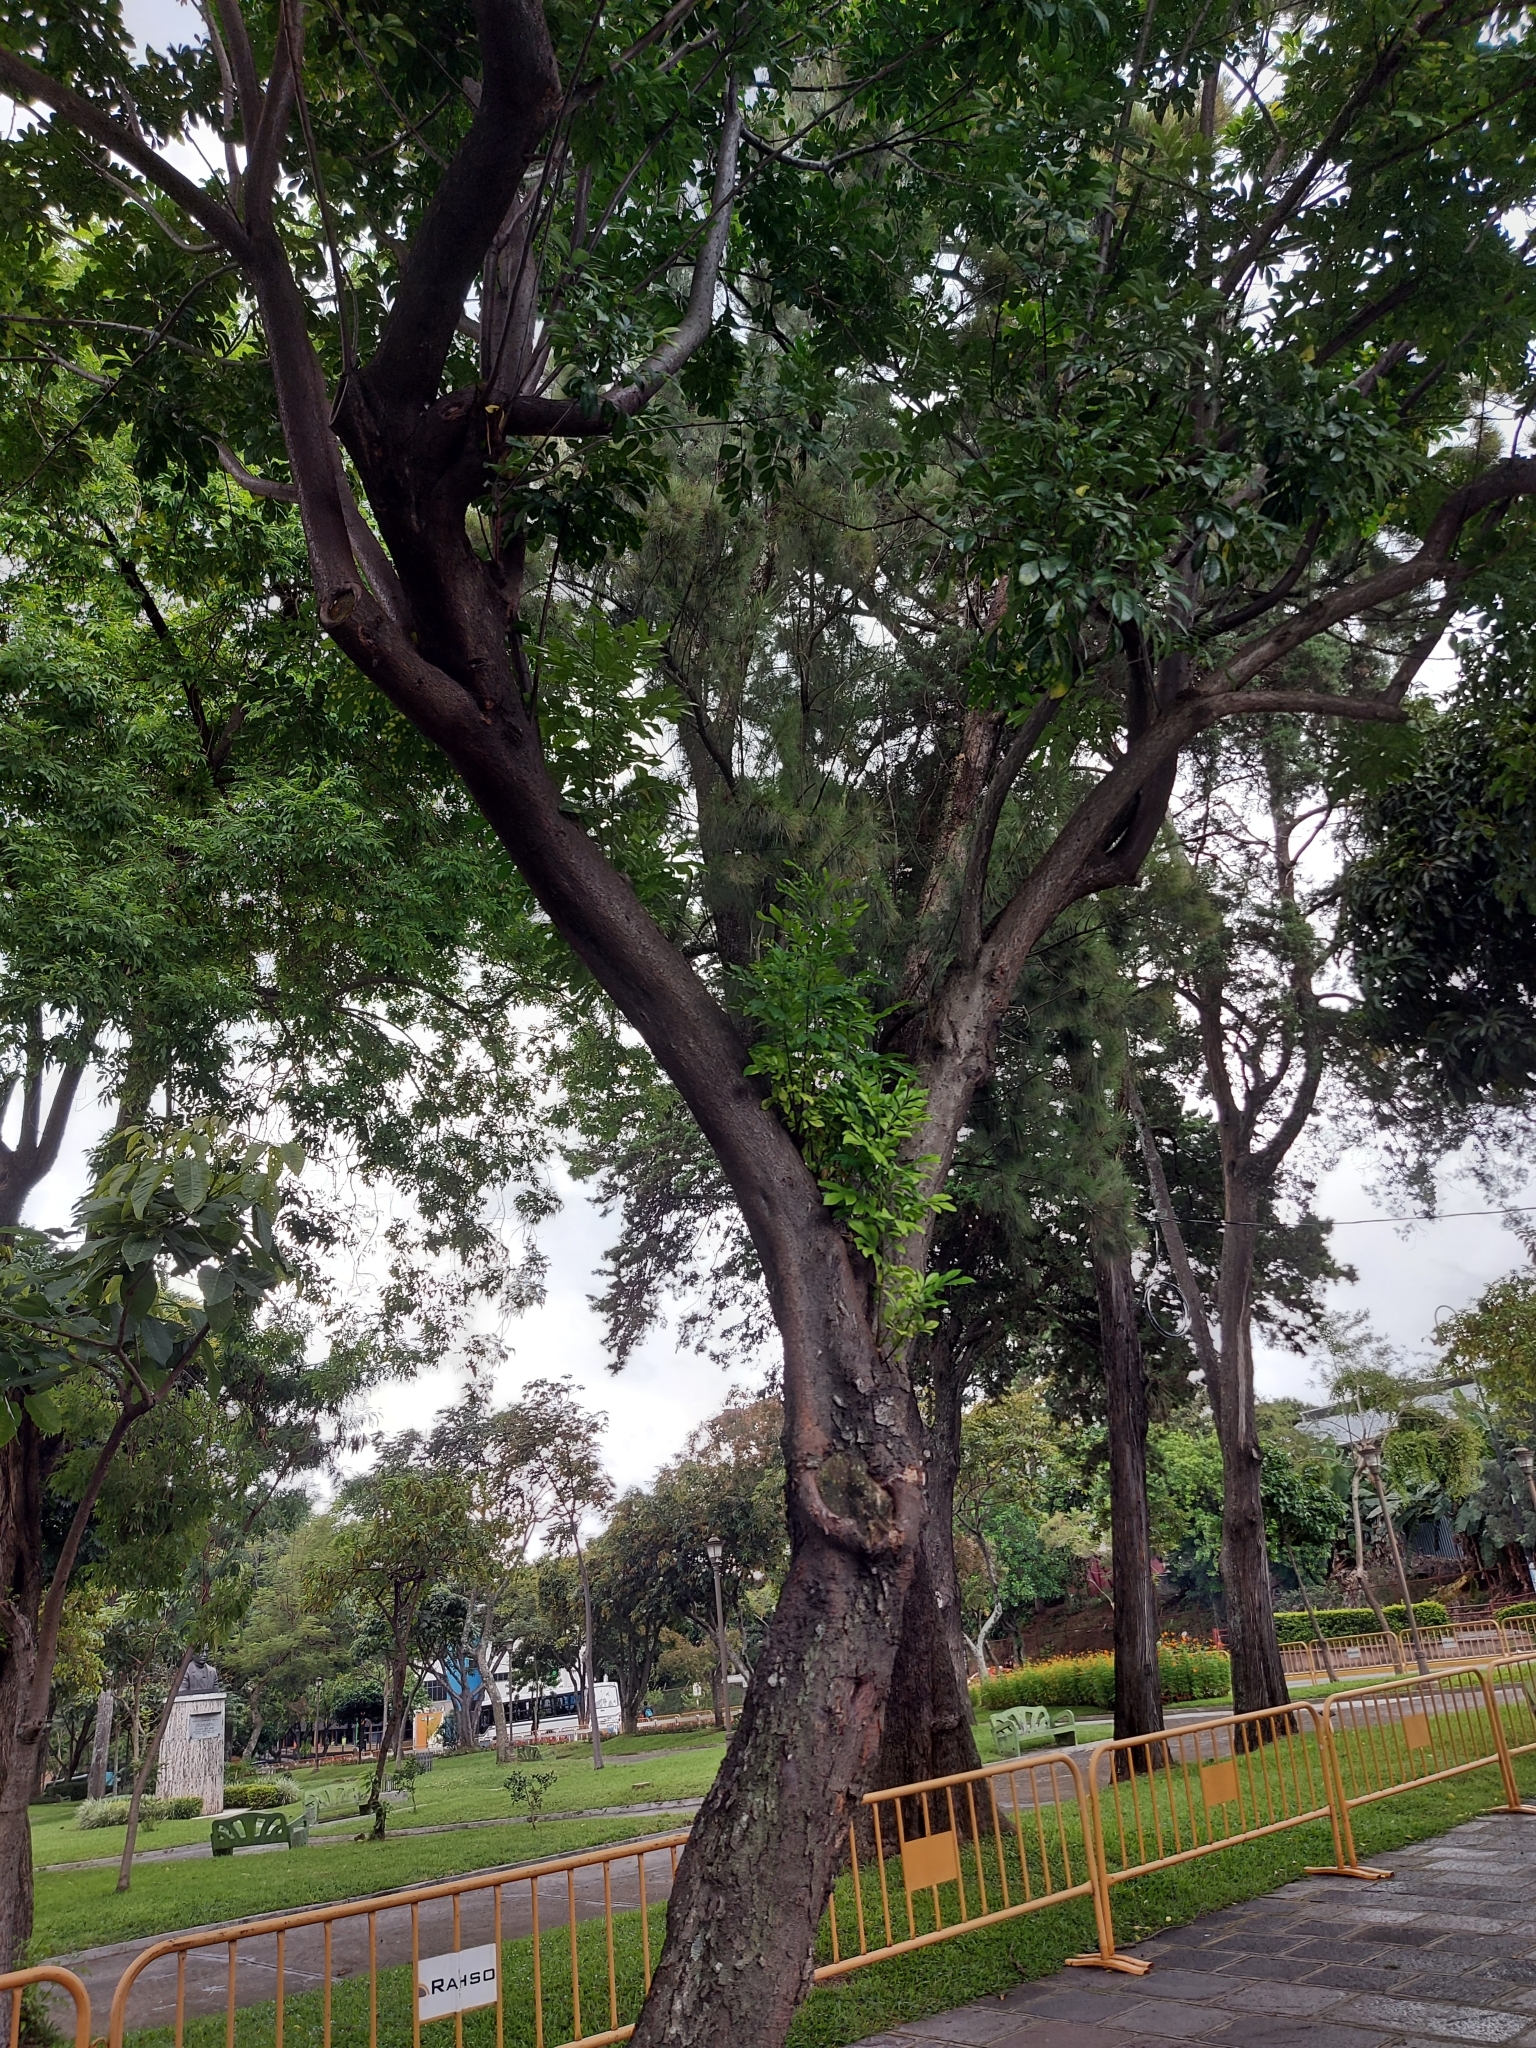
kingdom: Plantae
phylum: Tracheophyta
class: Magnoliopsida
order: Sapindales
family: Meliaceae
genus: Trichilia
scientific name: Trichilia havanensis
